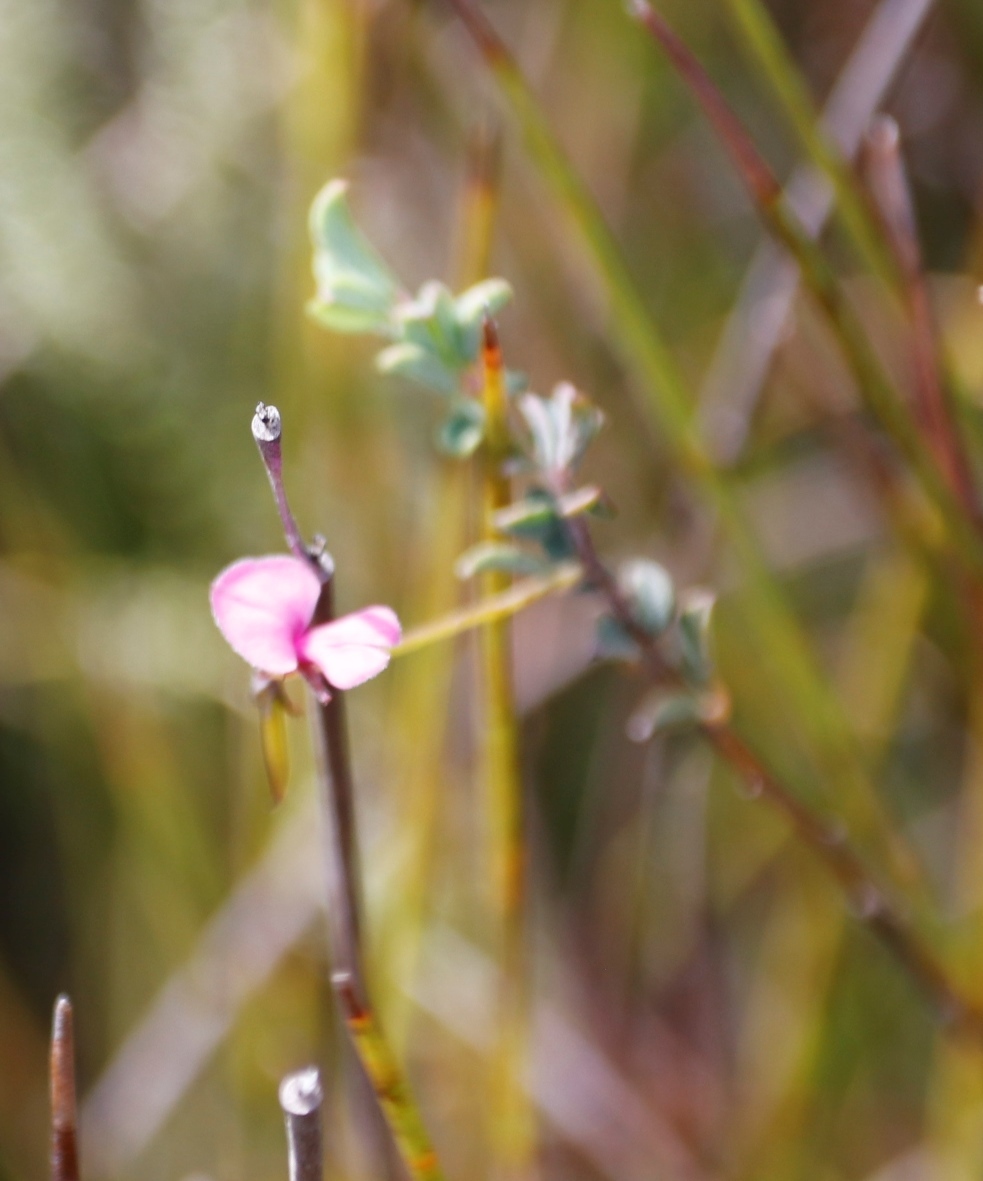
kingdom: Plantae
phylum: Tracheophyta
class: Magnoliopsida
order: Fabales
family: Fabaceae
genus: Indigofera
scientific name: Indigofera sarmentosa
